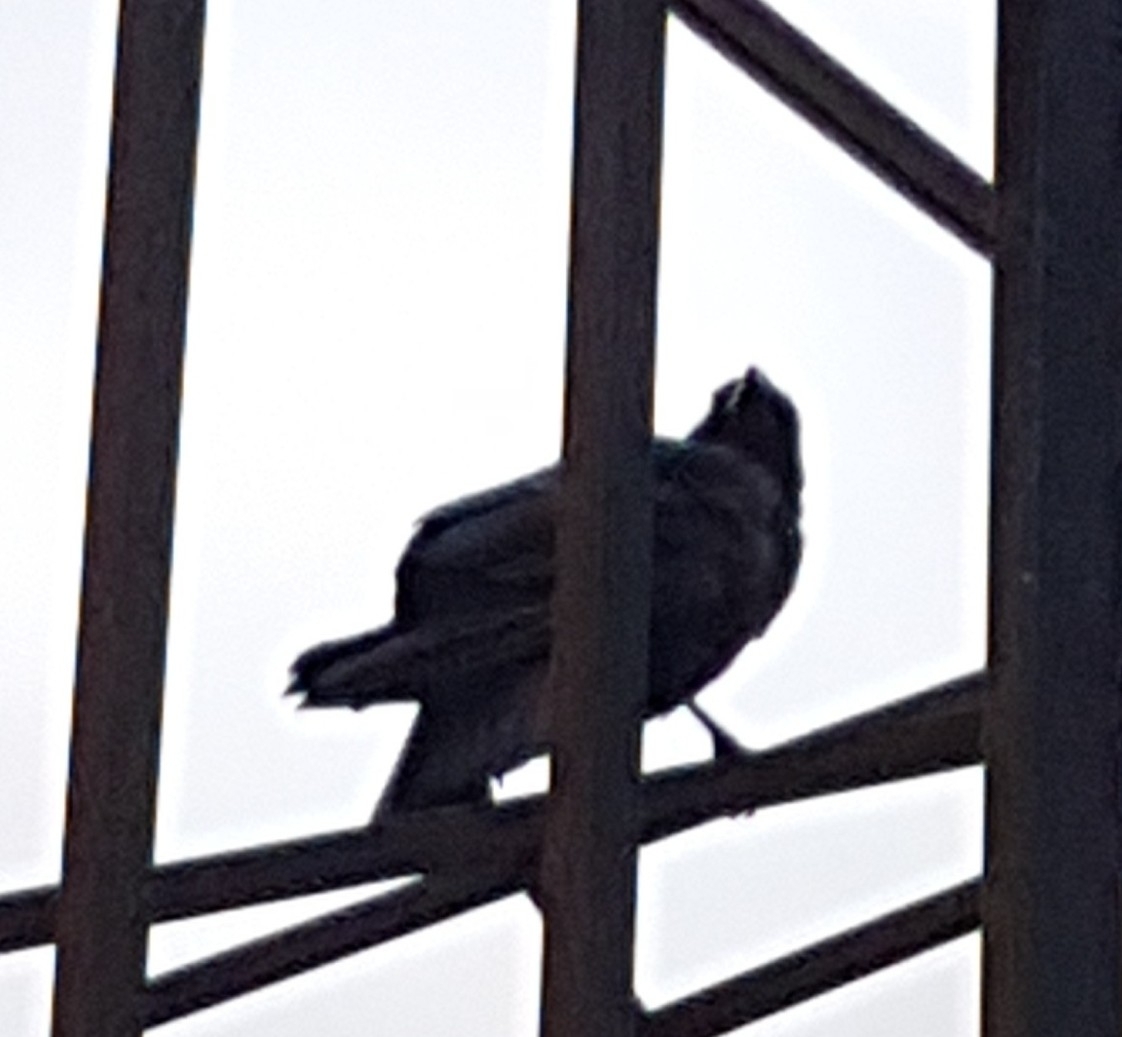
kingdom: Animalia
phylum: Chordata
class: Aves
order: Passeriformes
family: Corvidae
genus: Corvus
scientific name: Corvus brachyrhynchos
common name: American crow
